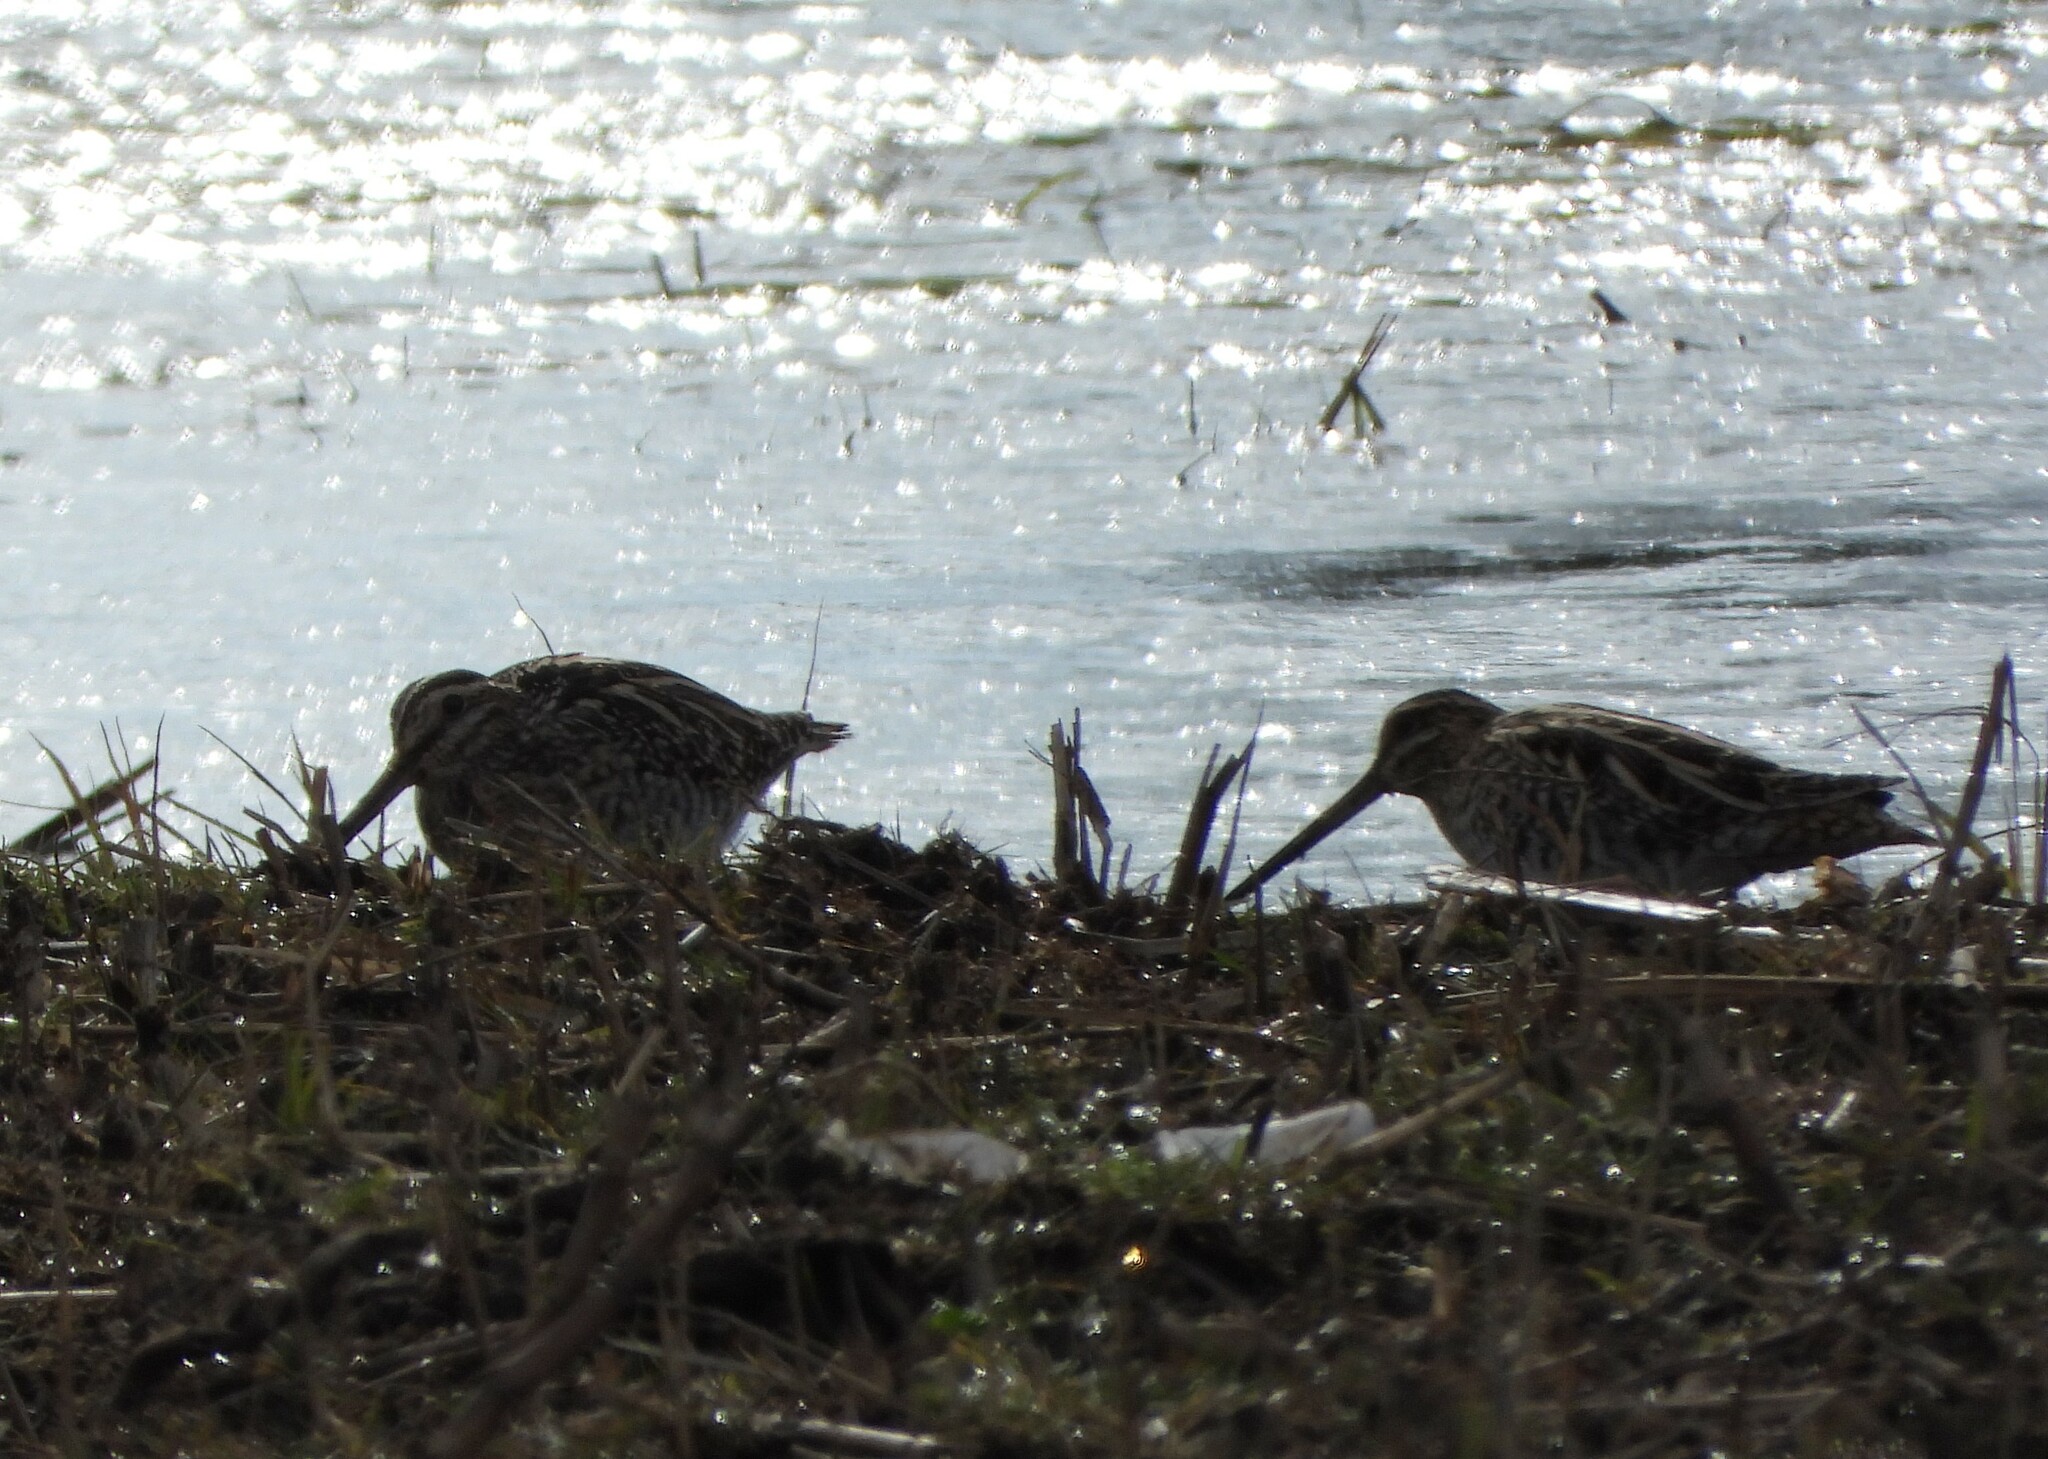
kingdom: Animalia
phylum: Chordata
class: Aves
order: Charadriiformes
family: Scolopacidae
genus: Gallinago
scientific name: Gallinago gallinago
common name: Common snipe
